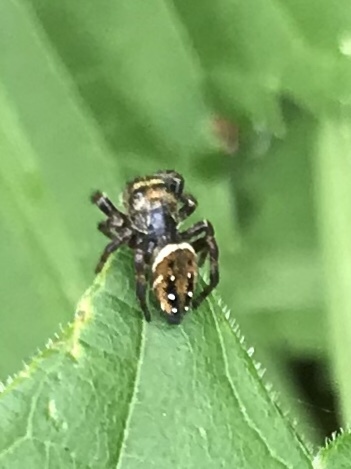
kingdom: Animalia
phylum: Arthropoda
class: Arachnida
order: Araneae
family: Salticidae
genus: Phidippus
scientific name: Phidippus clarus
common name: Brilliant jumping spider
